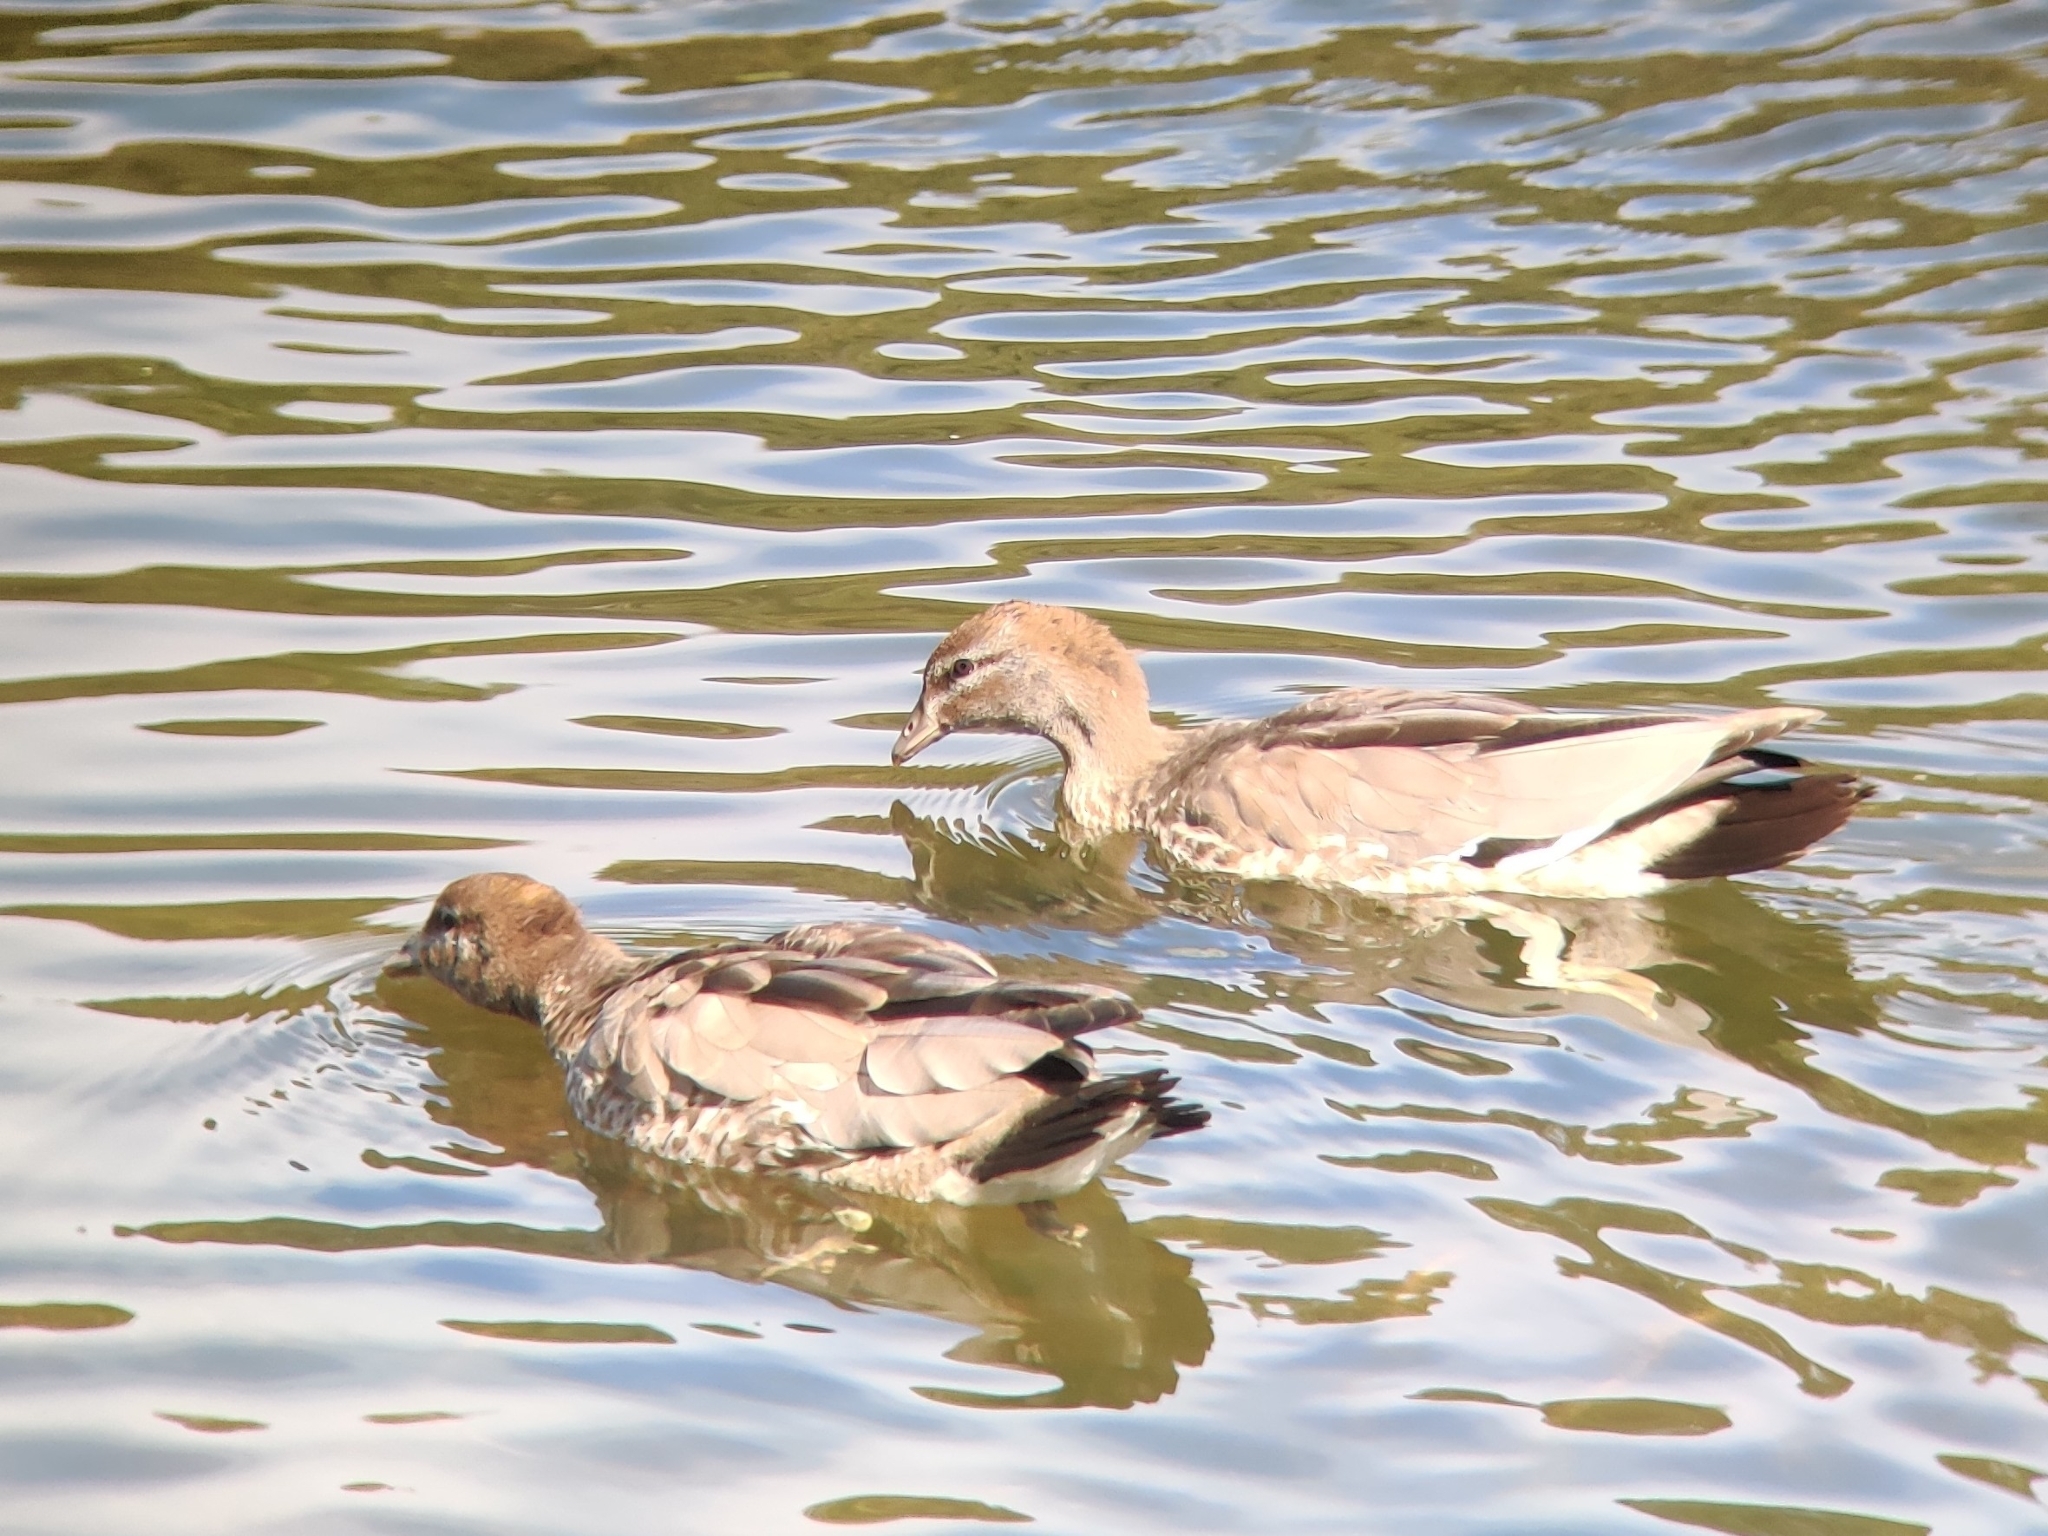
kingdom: Animalia
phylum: Chordata
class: Aves
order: Anseriformes
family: Anatidae
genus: Chenonetta
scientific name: Chenonetta jubata
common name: Maned duck
